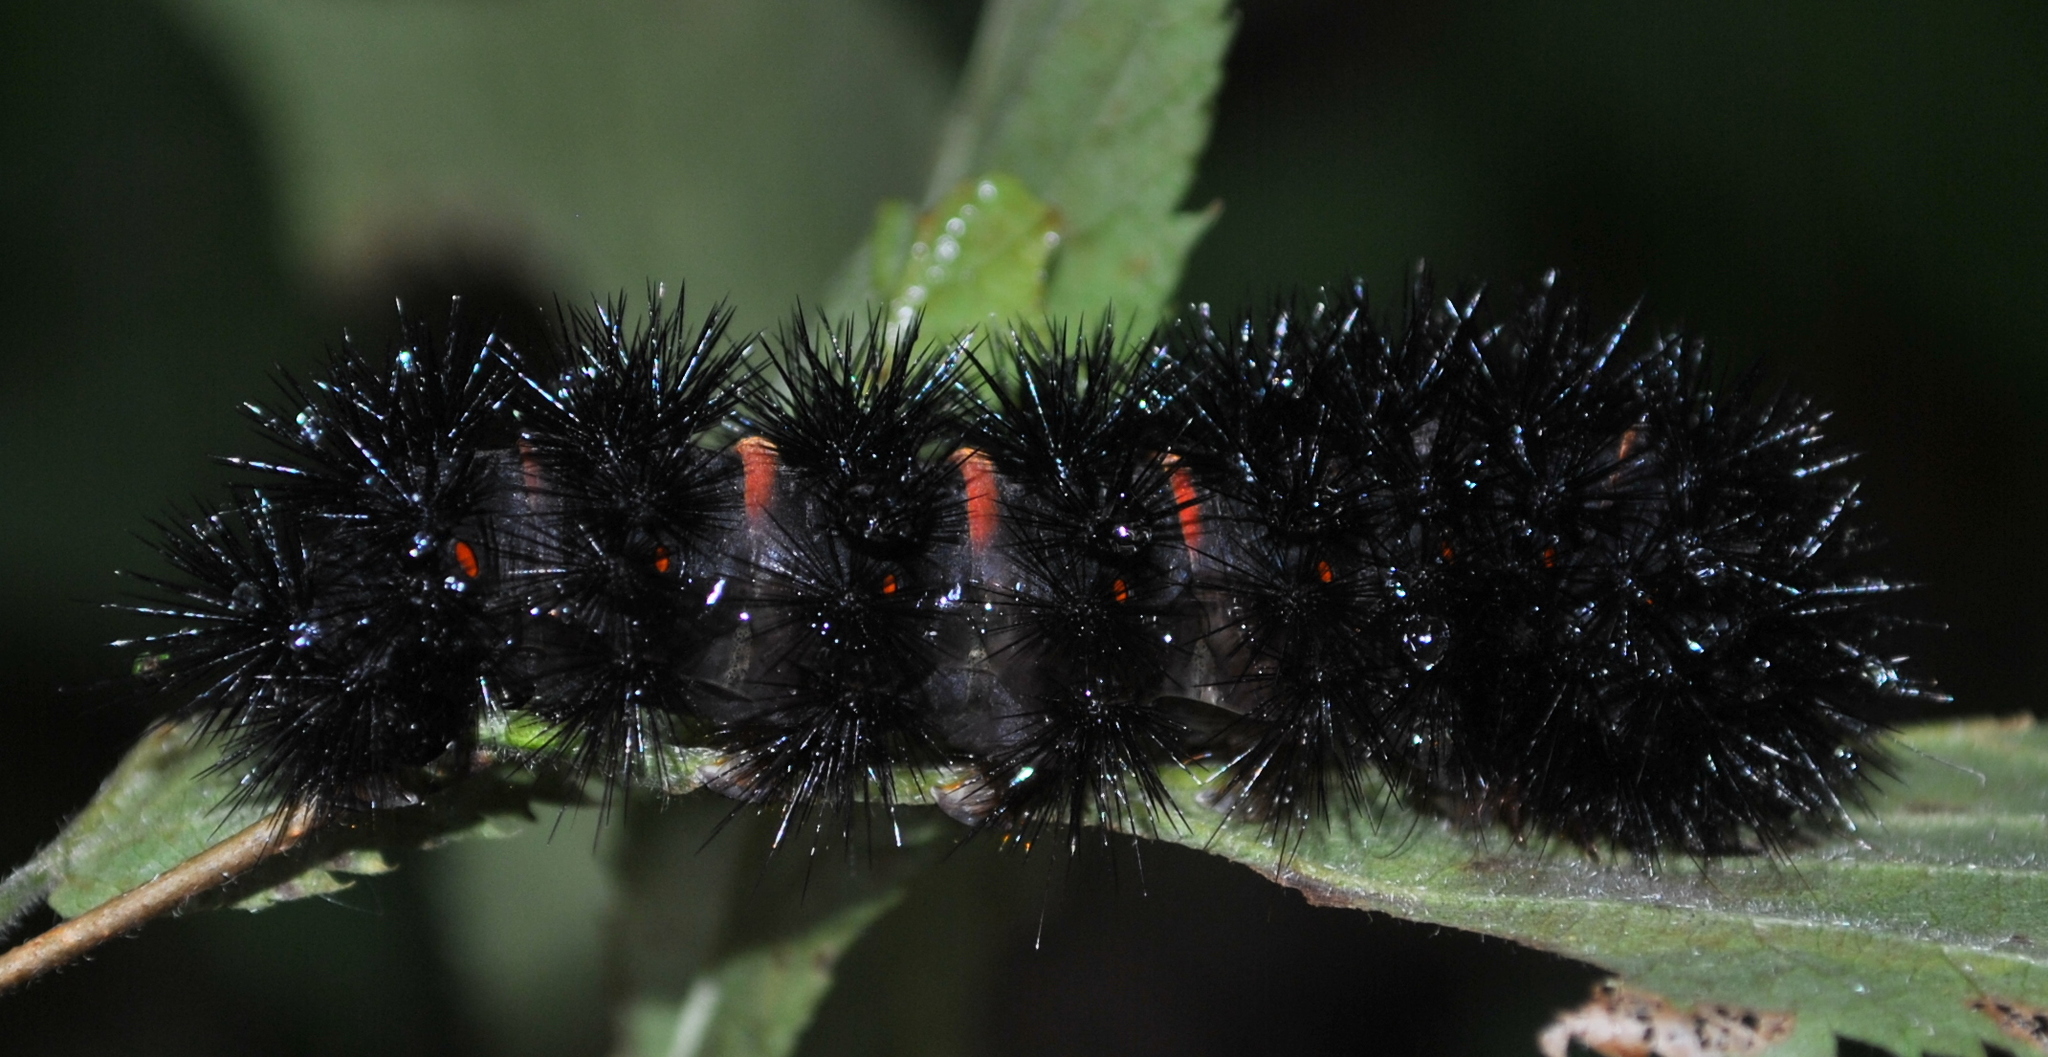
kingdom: Animalia
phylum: Arthropoda
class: Insecta
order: Lepidoptera
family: Erebidae
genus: Hypercompe
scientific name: Hypercompe scribonia
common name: Giant leopard moth
